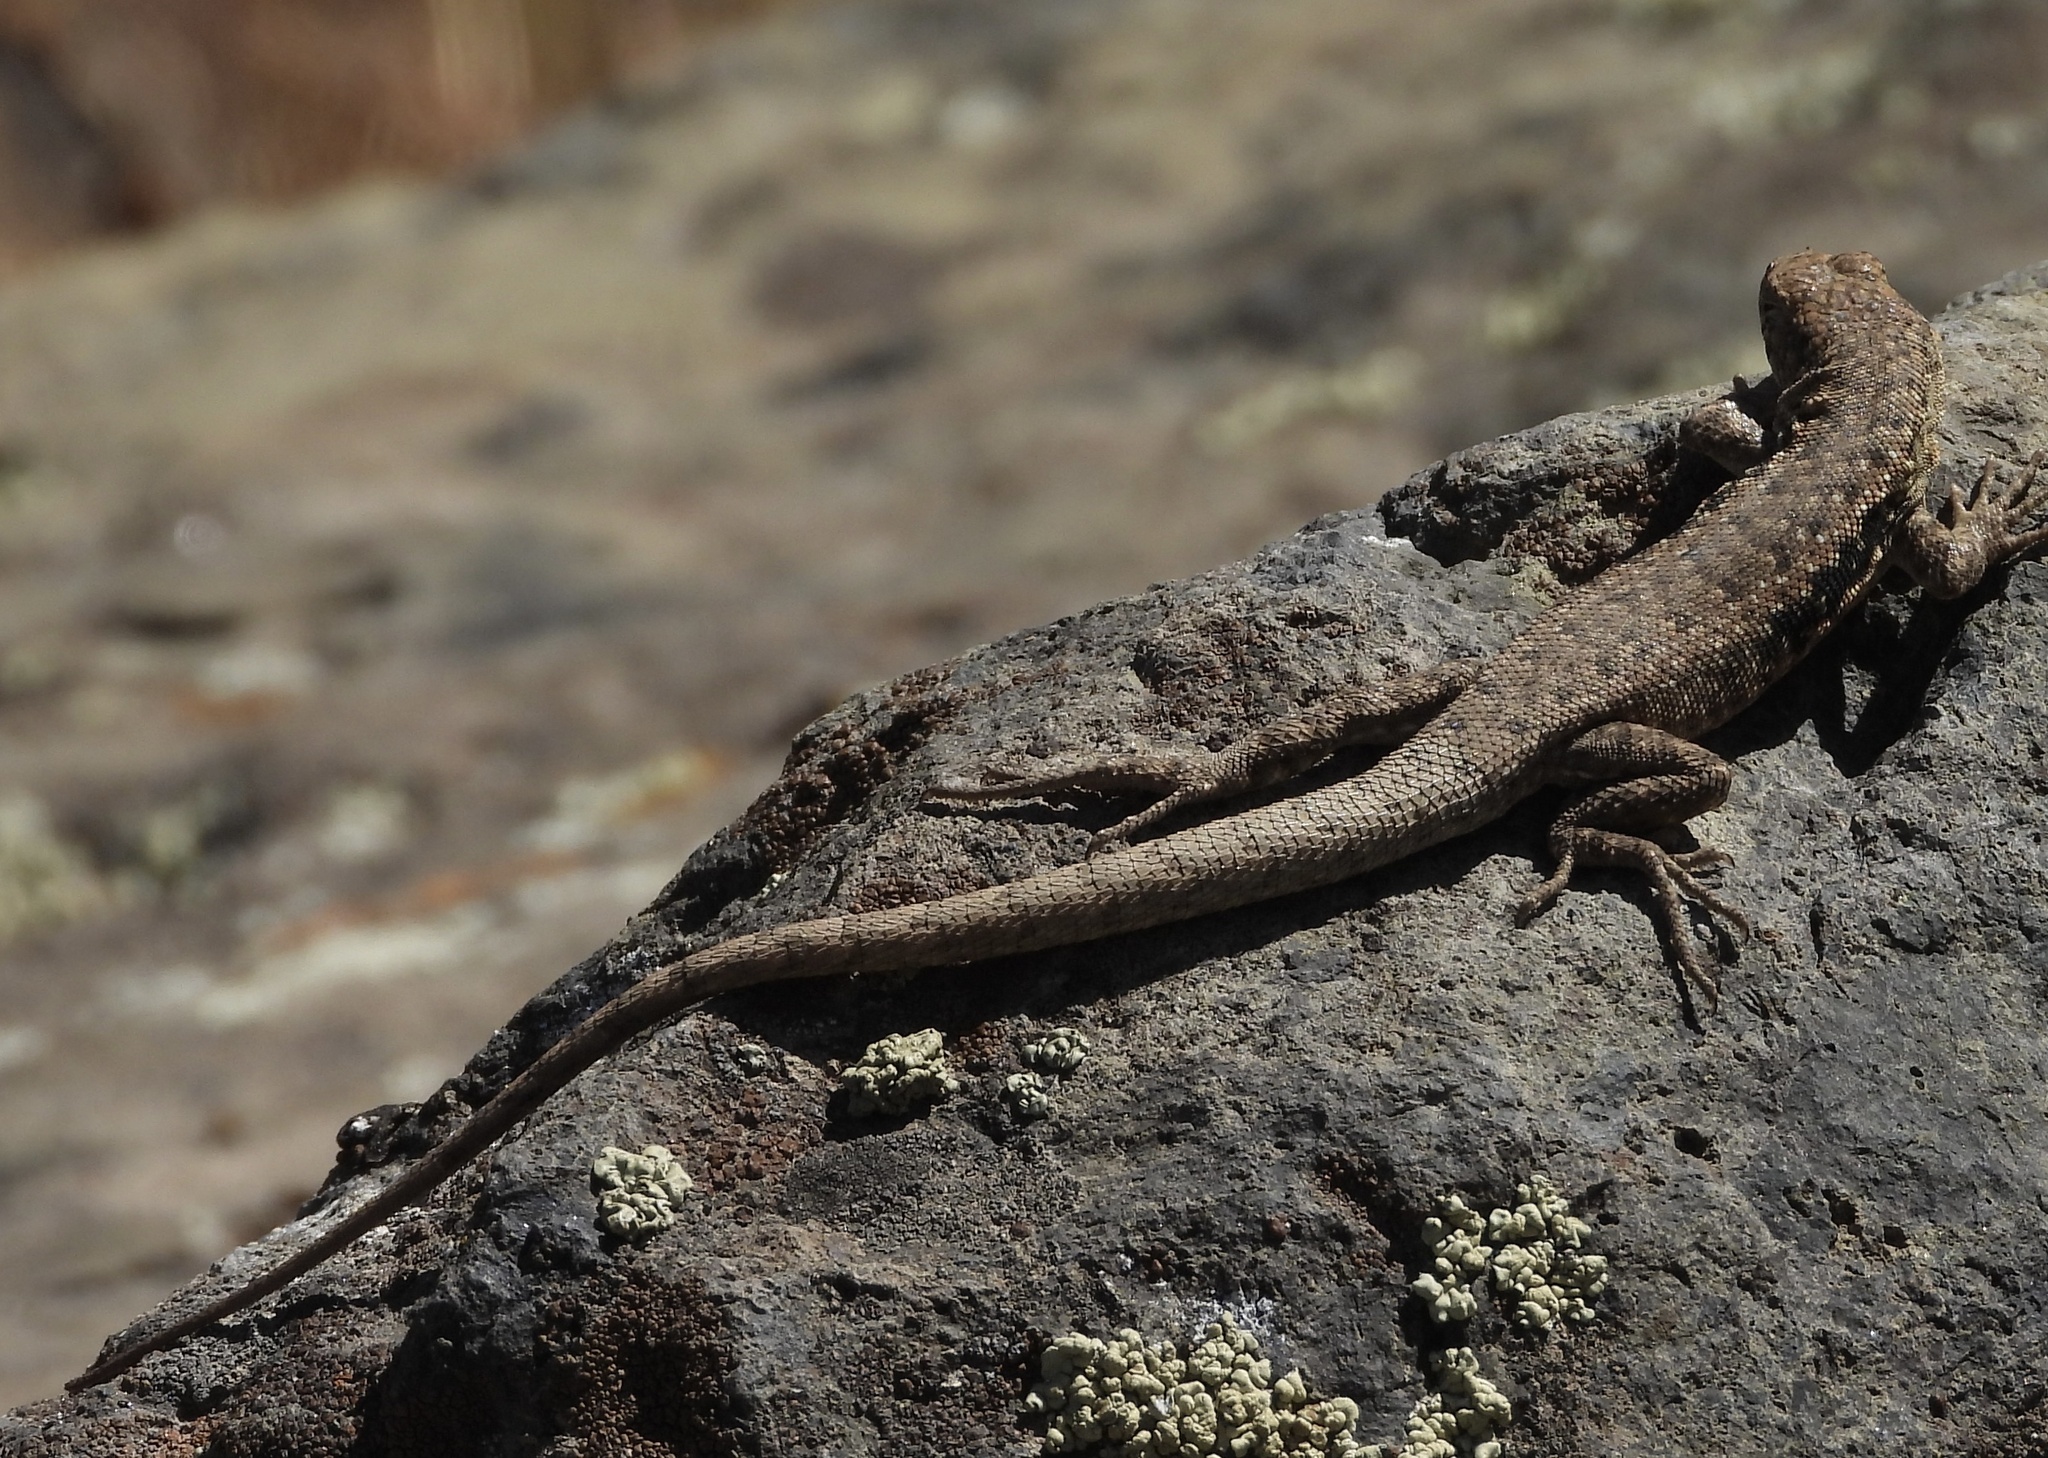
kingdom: Animalia
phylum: Chordata
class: Squamata
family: Liolaemidae
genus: Liolaemus
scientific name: Liolaemus monticola
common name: Peak tree iguana
